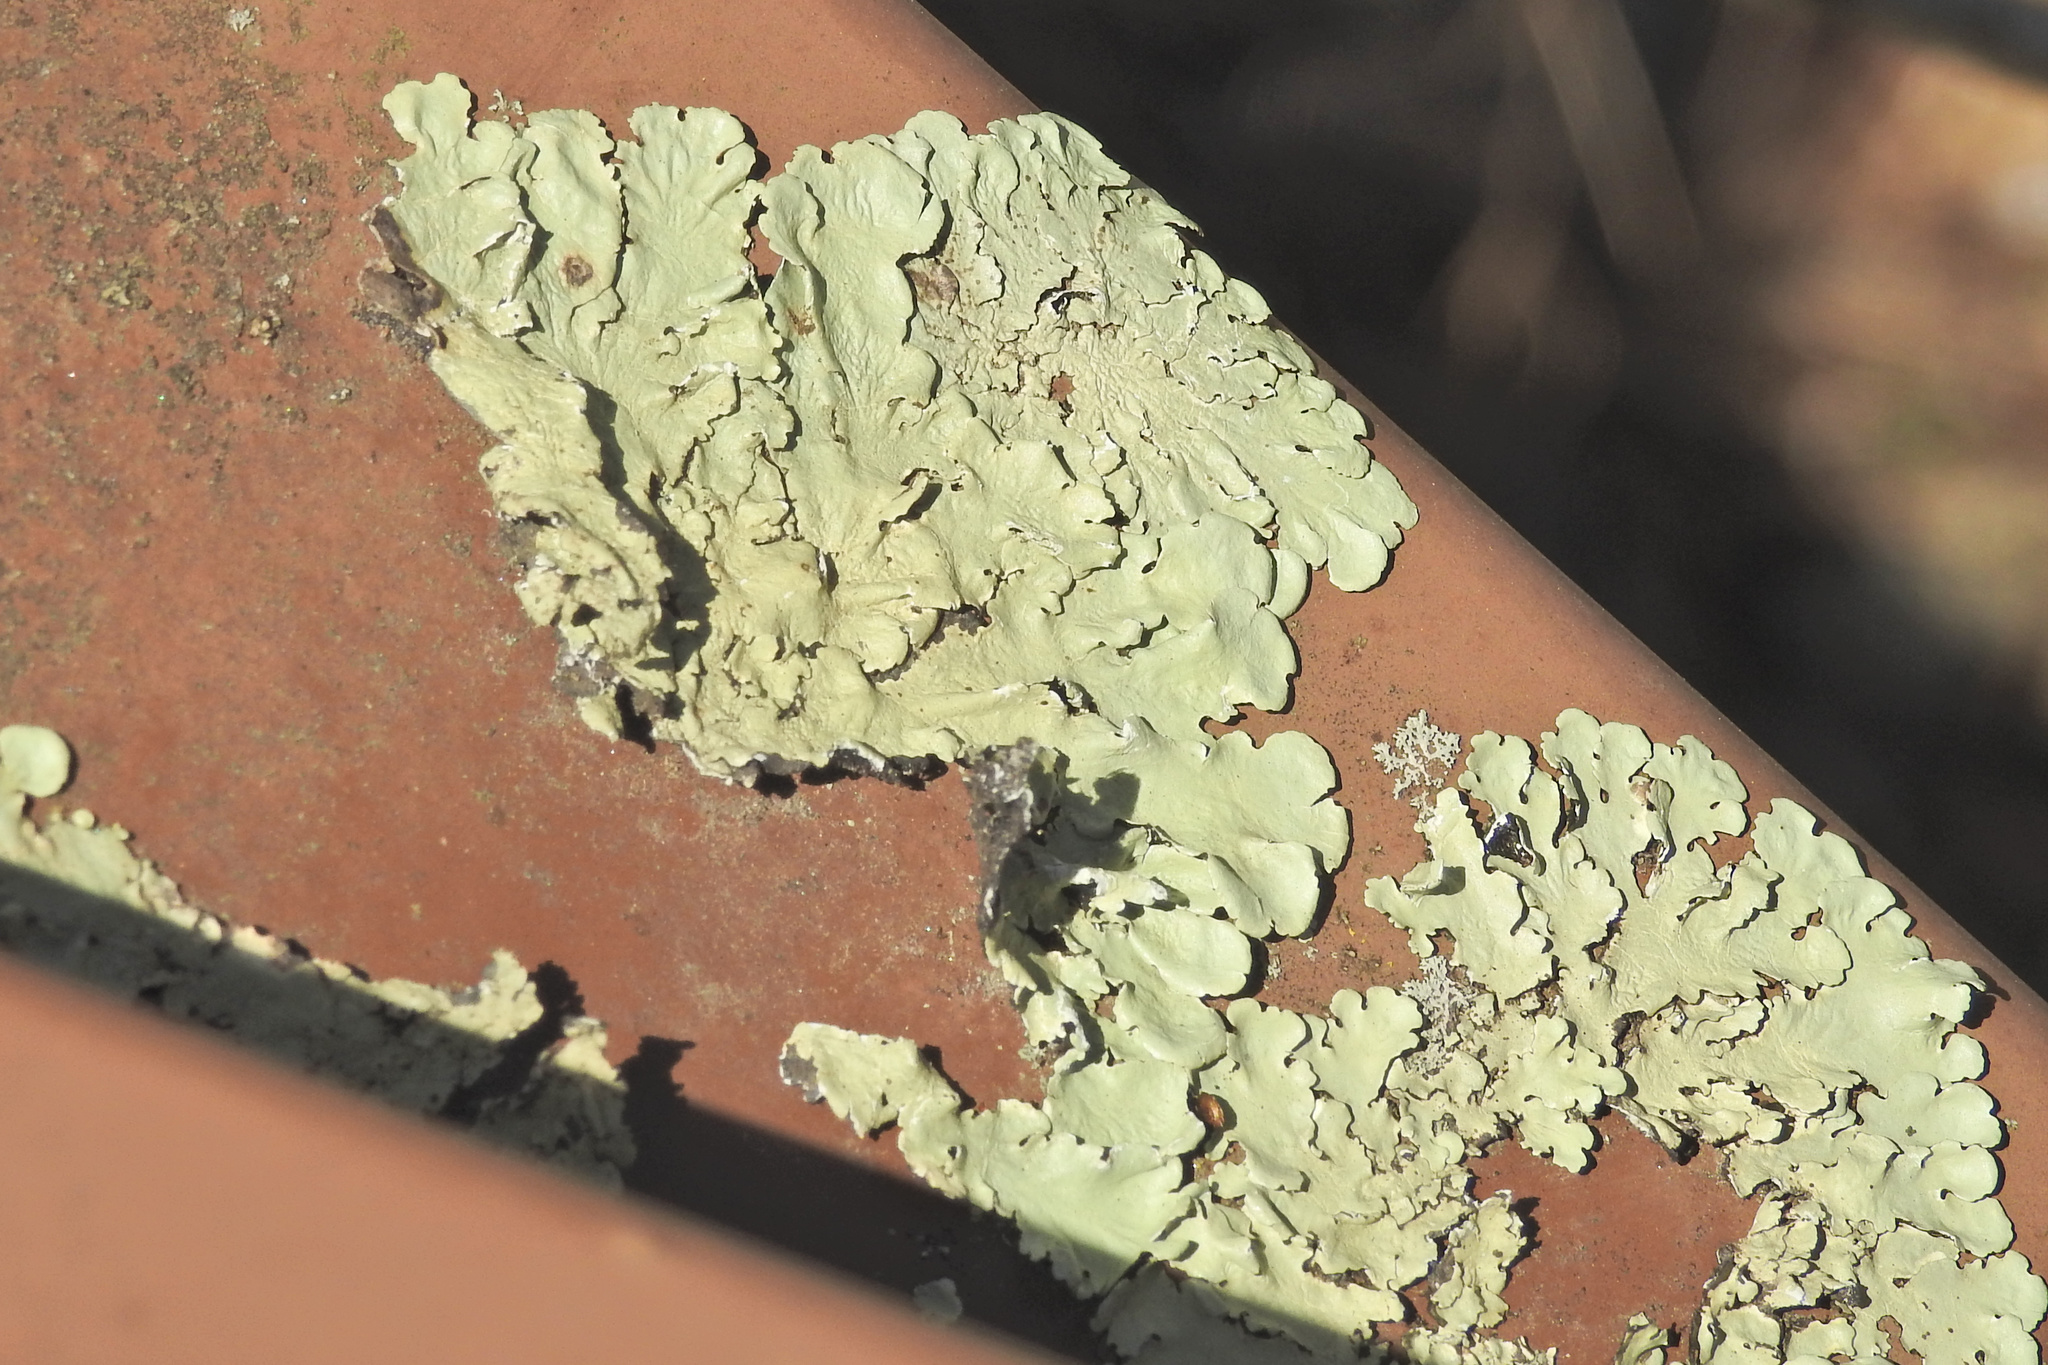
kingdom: Fungi
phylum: Ascomycota
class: Lecanoromycetes
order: Lecanorales
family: Parmeliaceae
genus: Flavoparmelia
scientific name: Flavoparmelia caperata
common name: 40-mile per hour lichen
